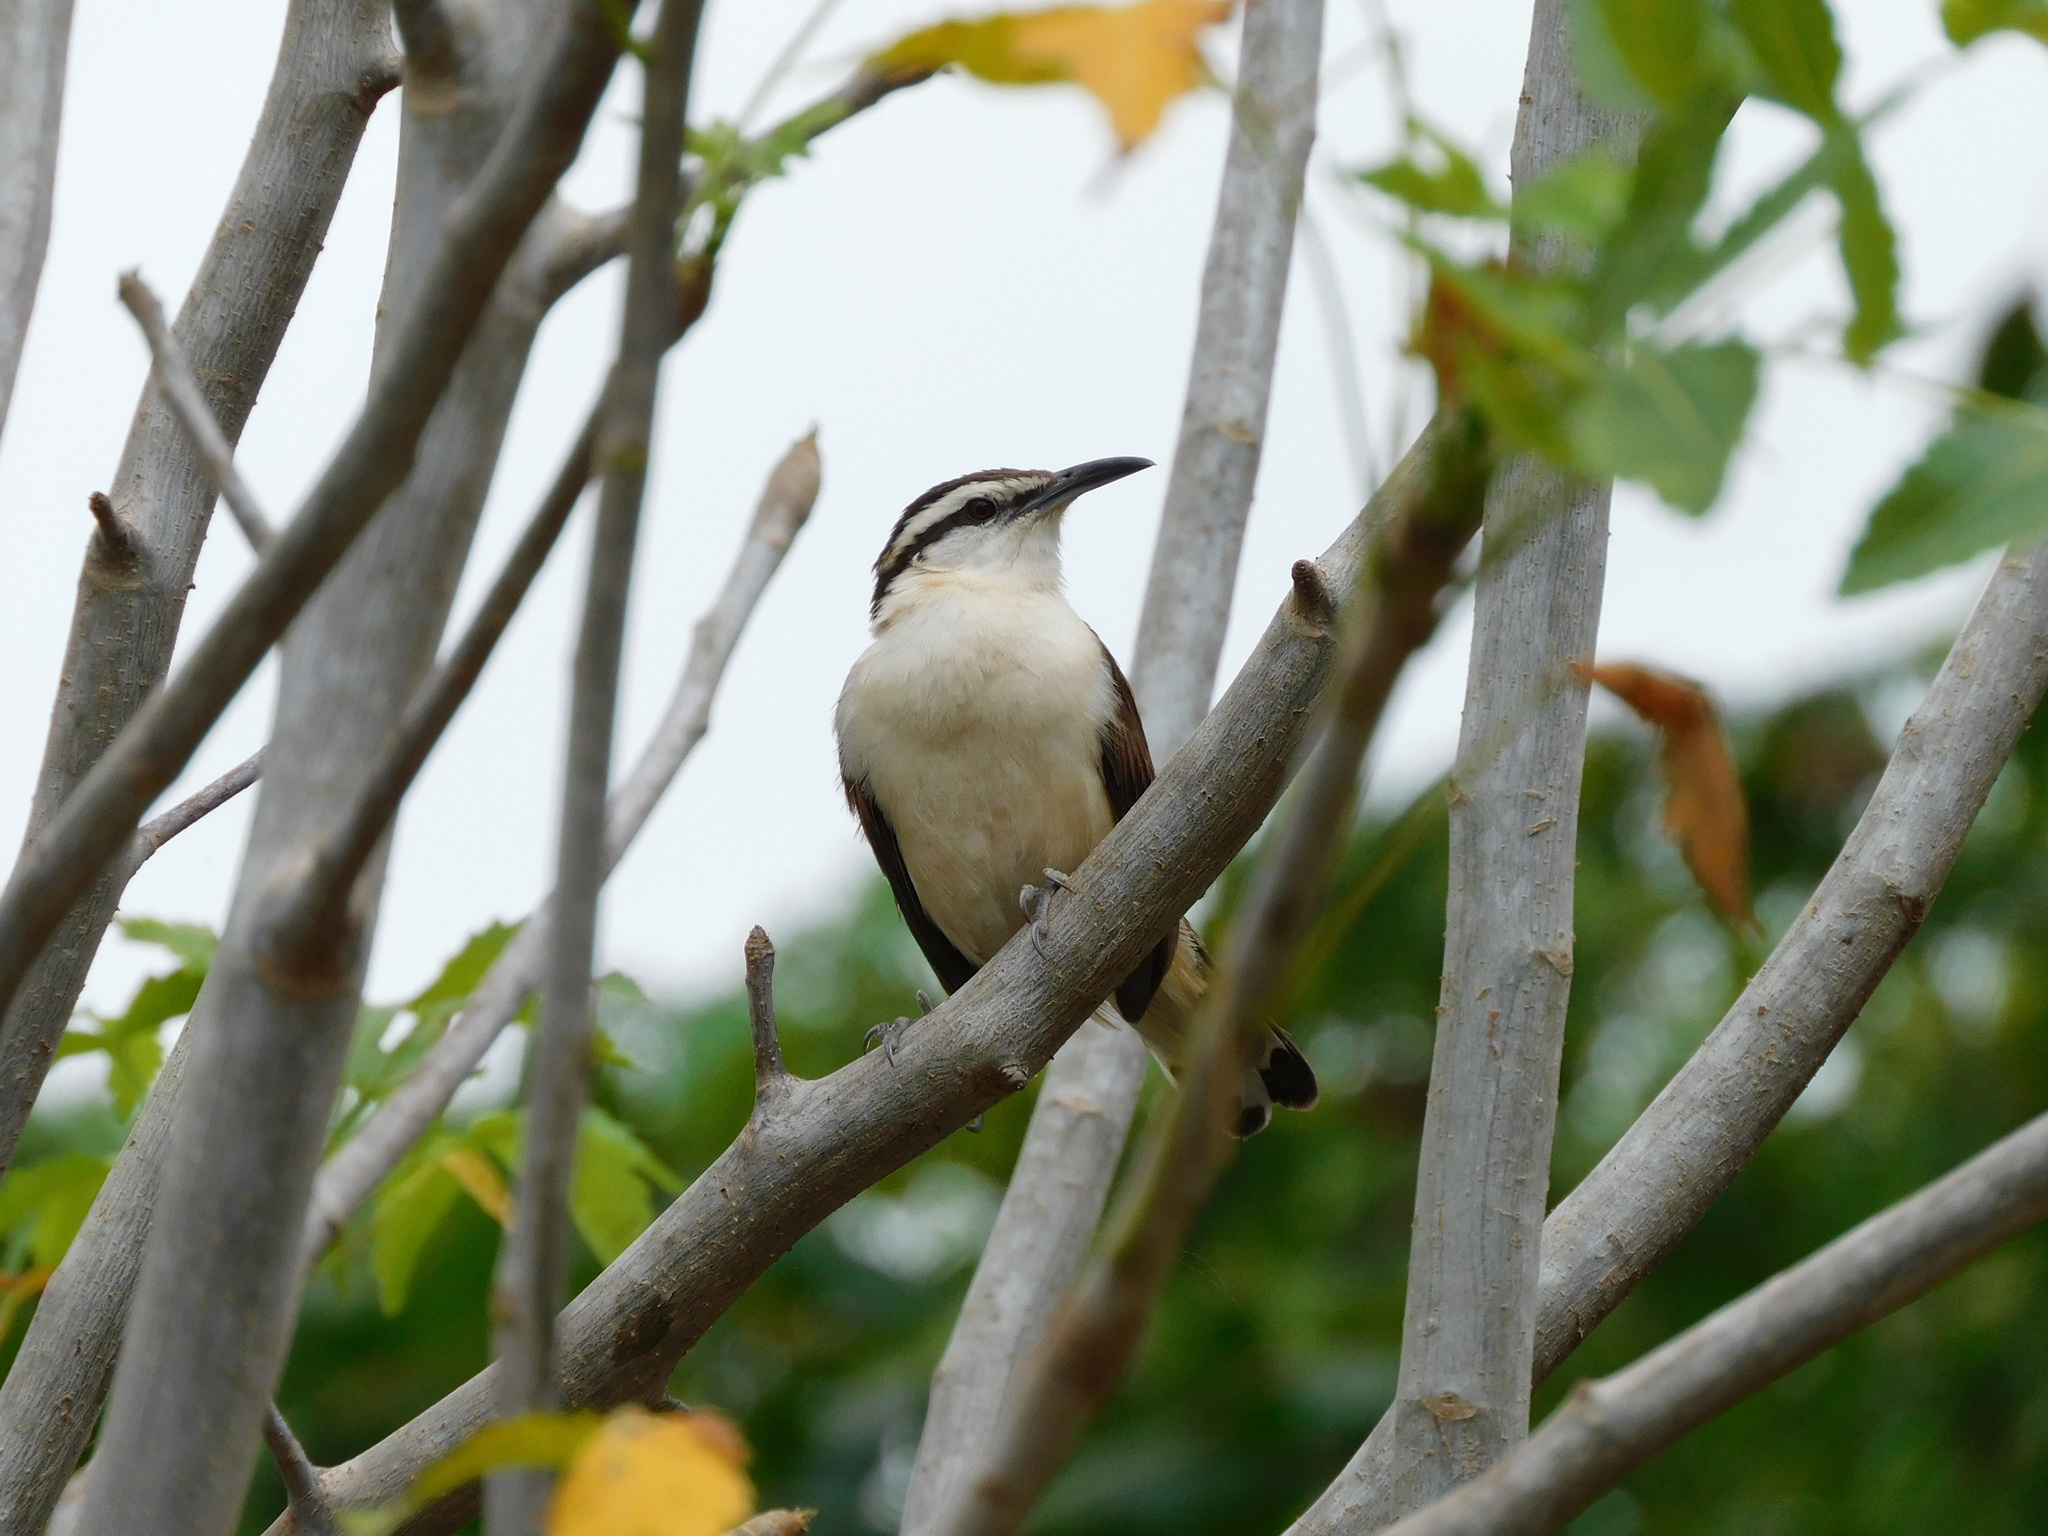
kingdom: Animalia
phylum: Chordata
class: Aves
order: Passeriformes
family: Troglodytidae
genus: Campylorhynchus
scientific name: Campylorhynchus griseus
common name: Bicolored wren
